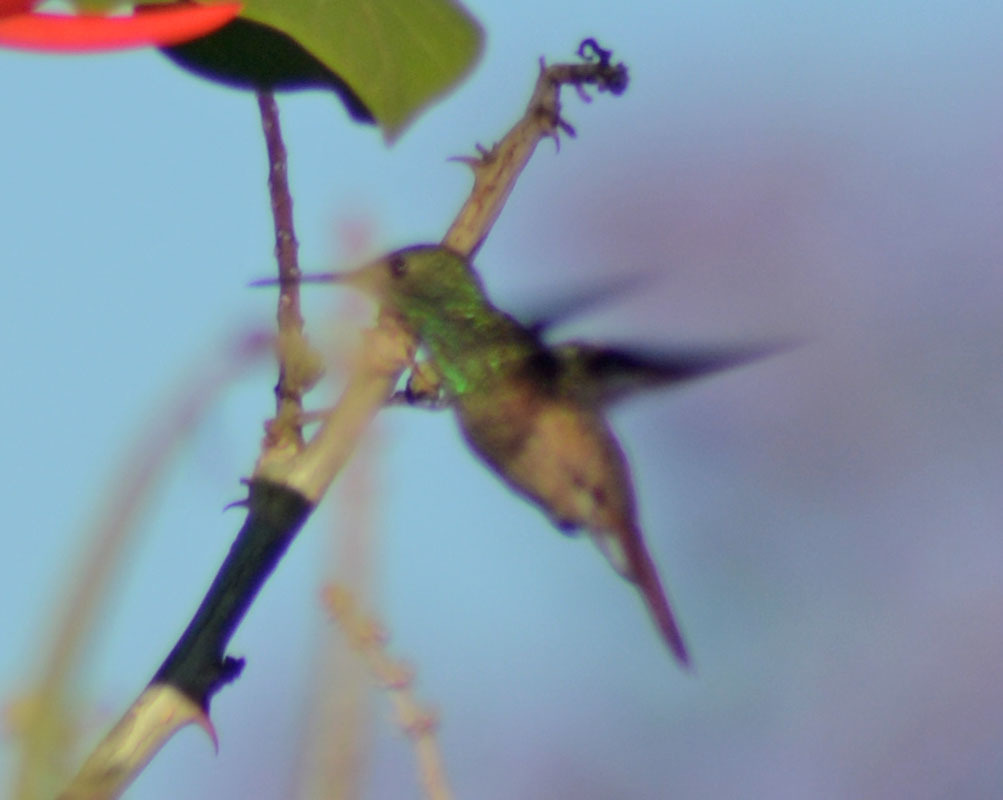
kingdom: Animalia
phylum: Chordata
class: Aves
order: Apodiformes
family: Trochilidae
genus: Saucerottia
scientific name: Saucerottia beryllina
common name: Berylline hummingbird
